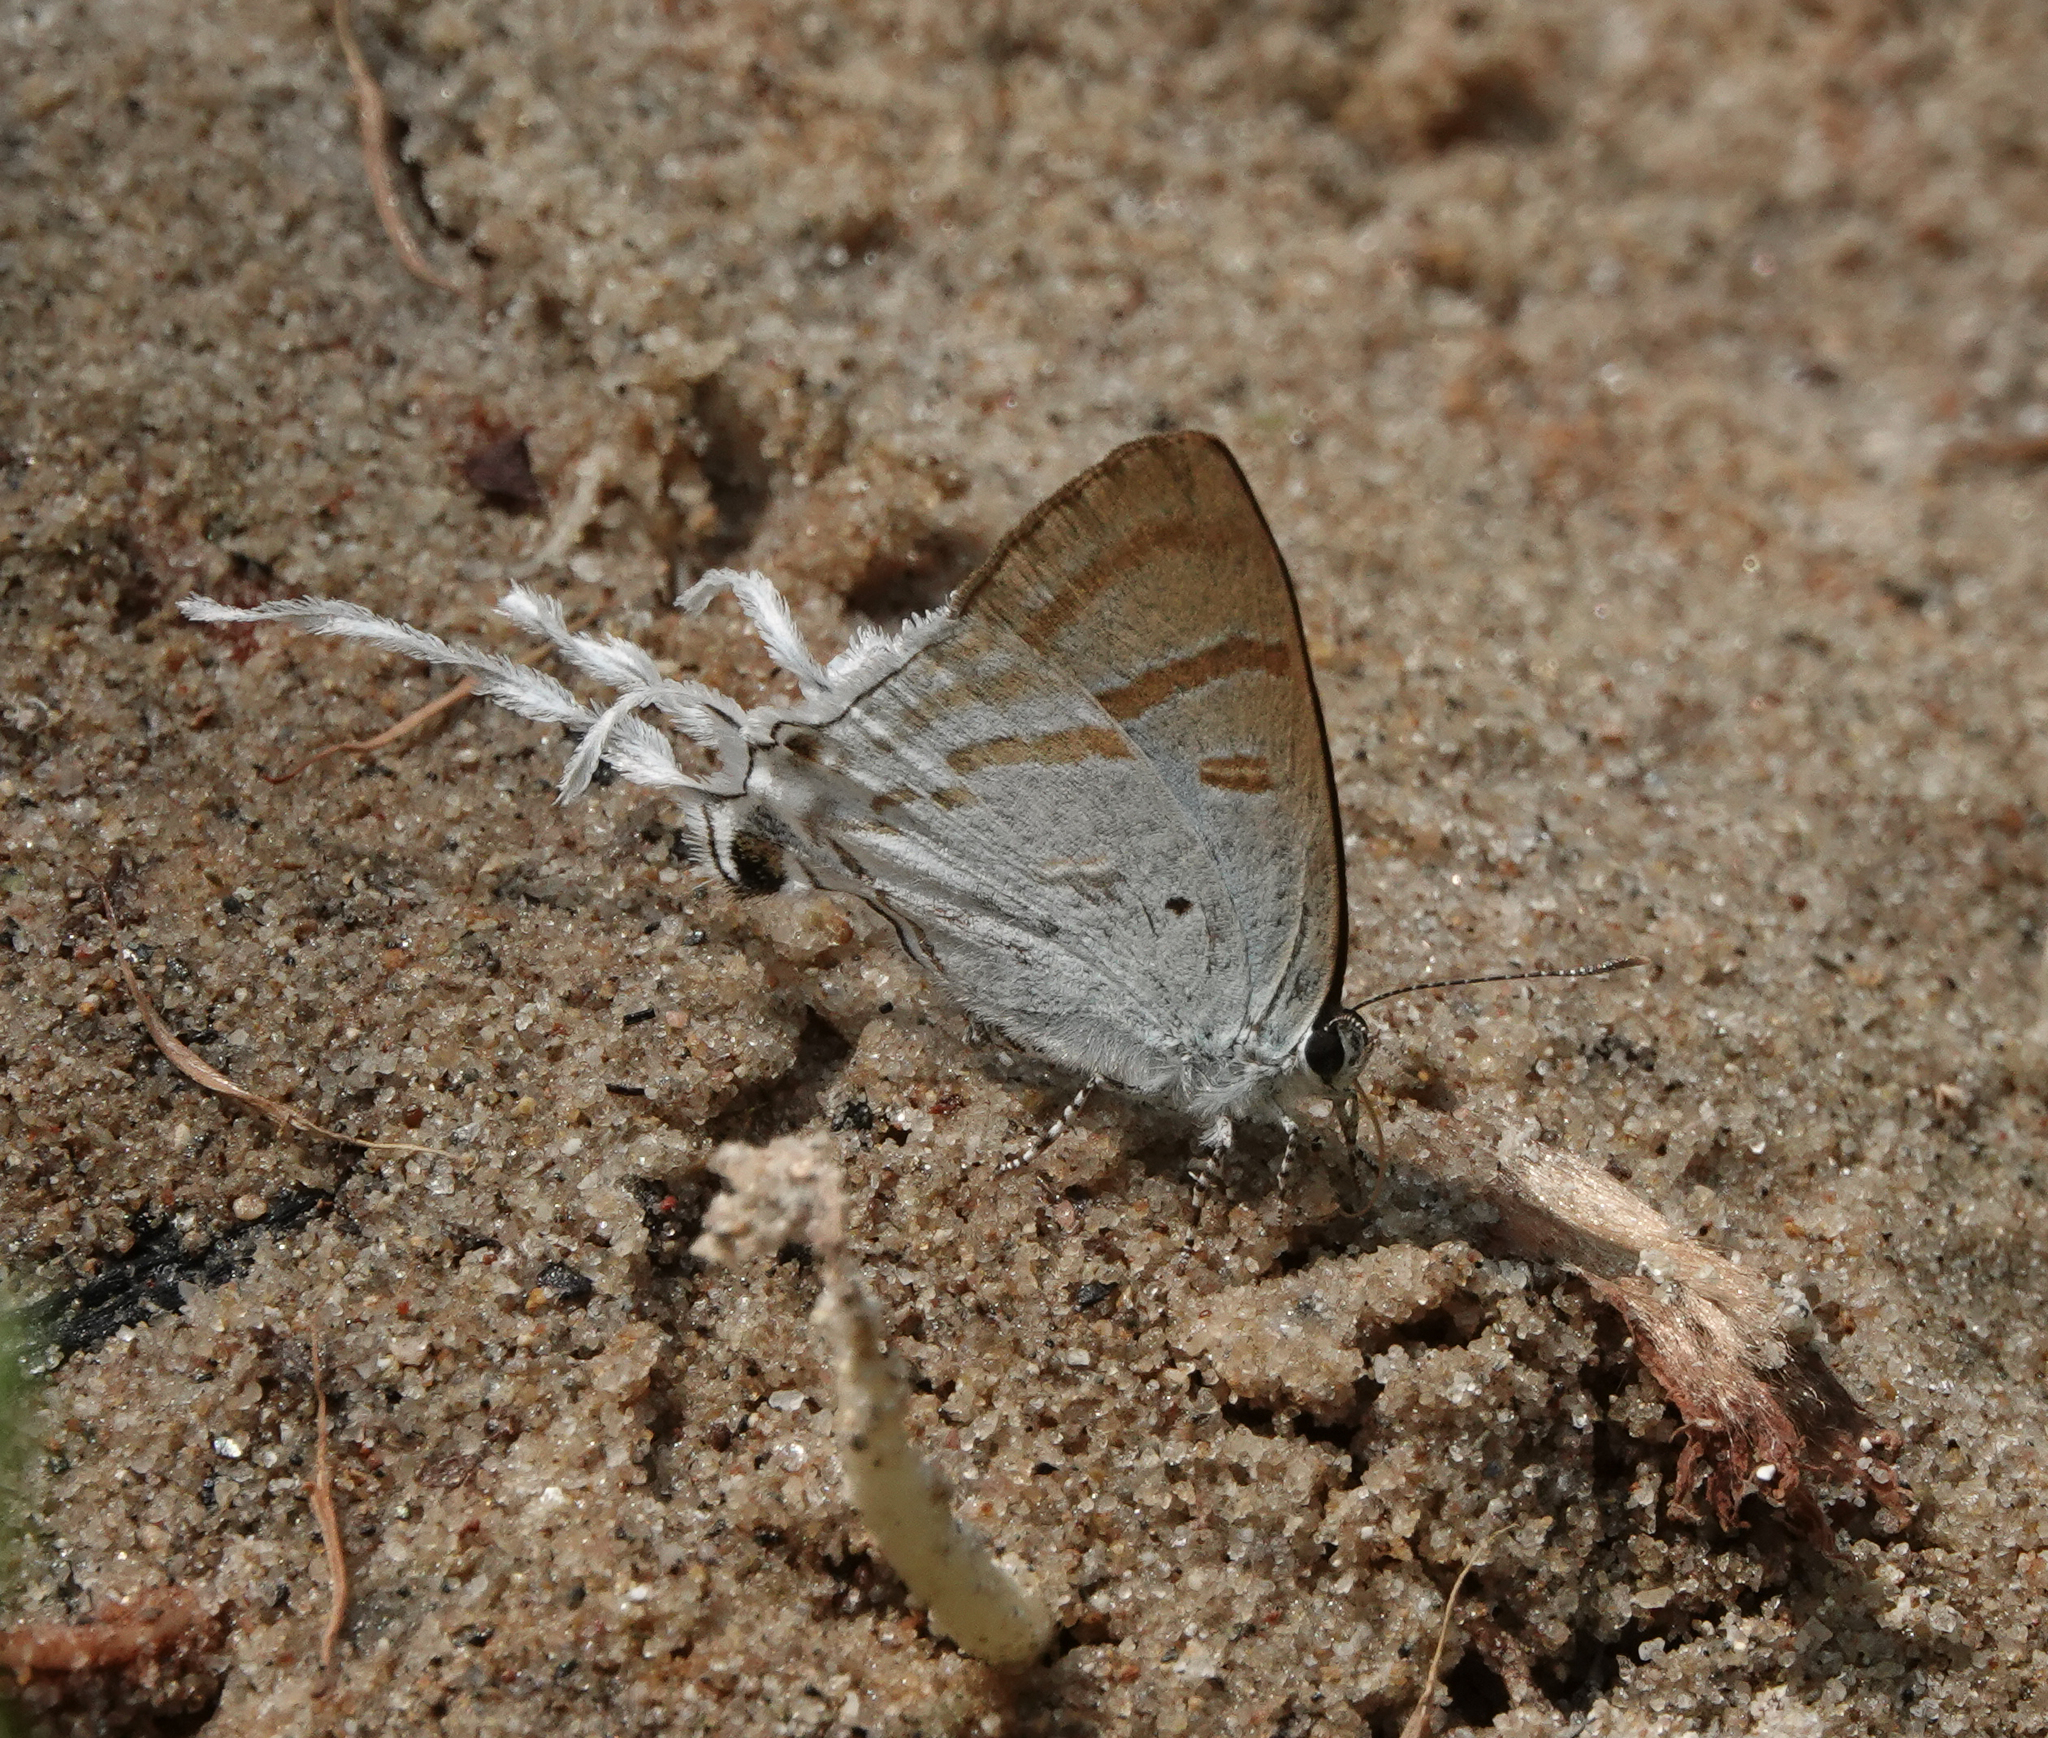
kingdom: Animalia
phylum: Arthropoda
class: Insecta
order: Lepidoptera
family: Lycaenidae
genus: Zeltus
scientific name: Zeltus amasa
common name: Fluffy tit
